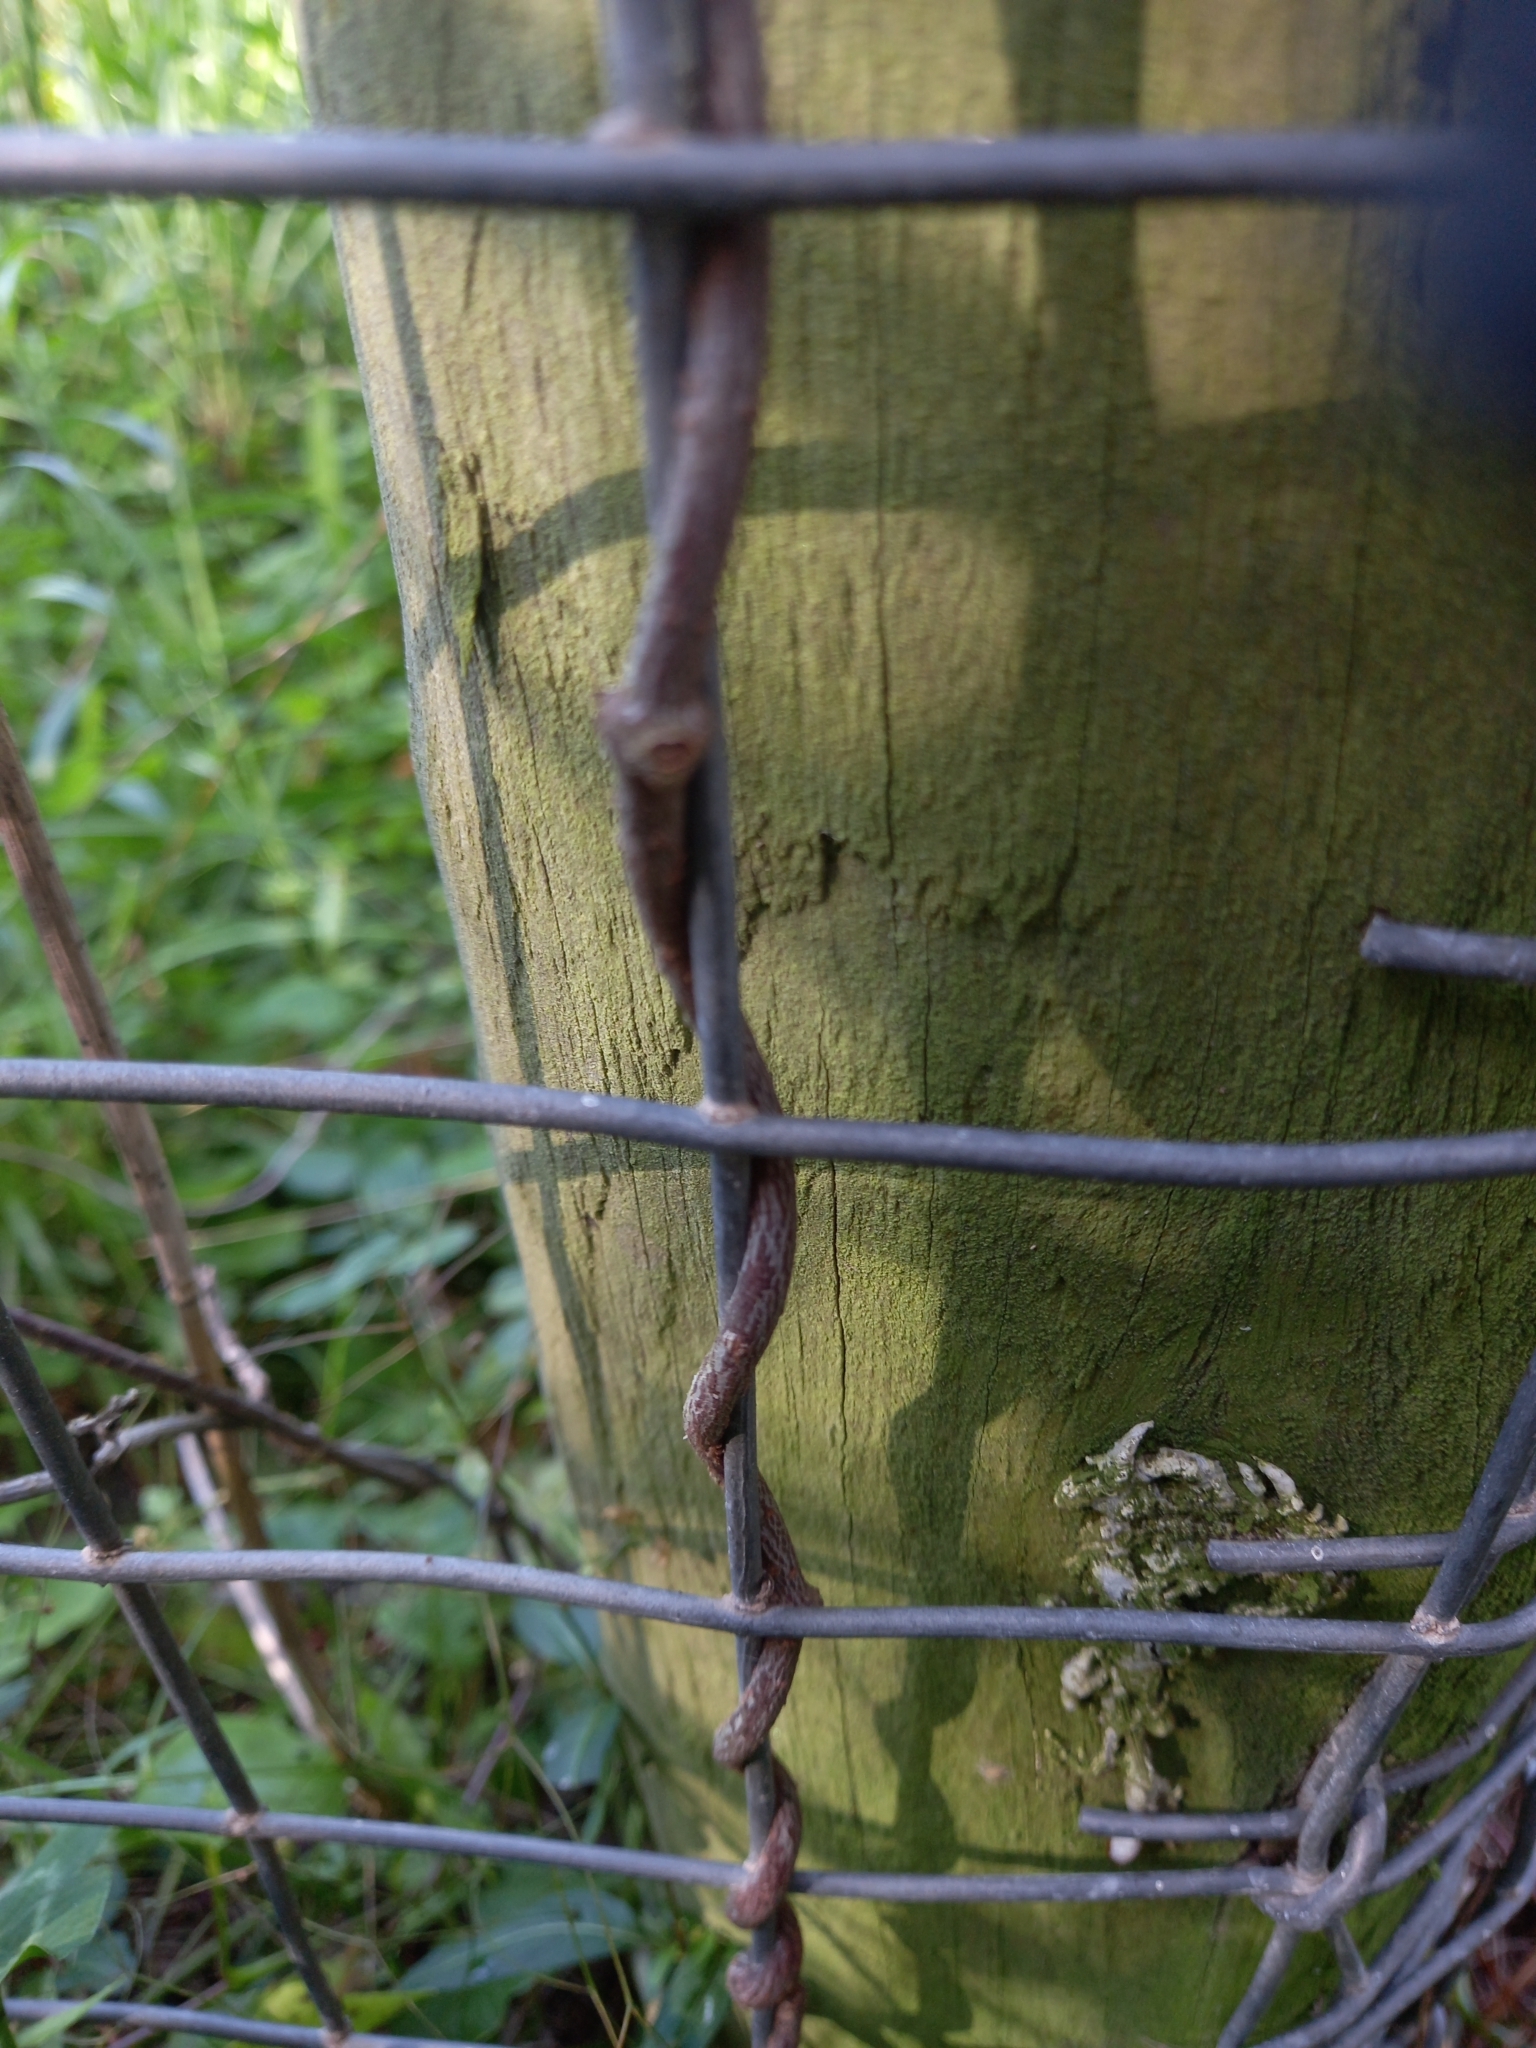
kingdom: Plantae
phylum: Tracheophyta
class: Magnoliopsida
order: Gentianales
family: Apocynaceae
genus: Fockea
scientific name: Fockea edulis
